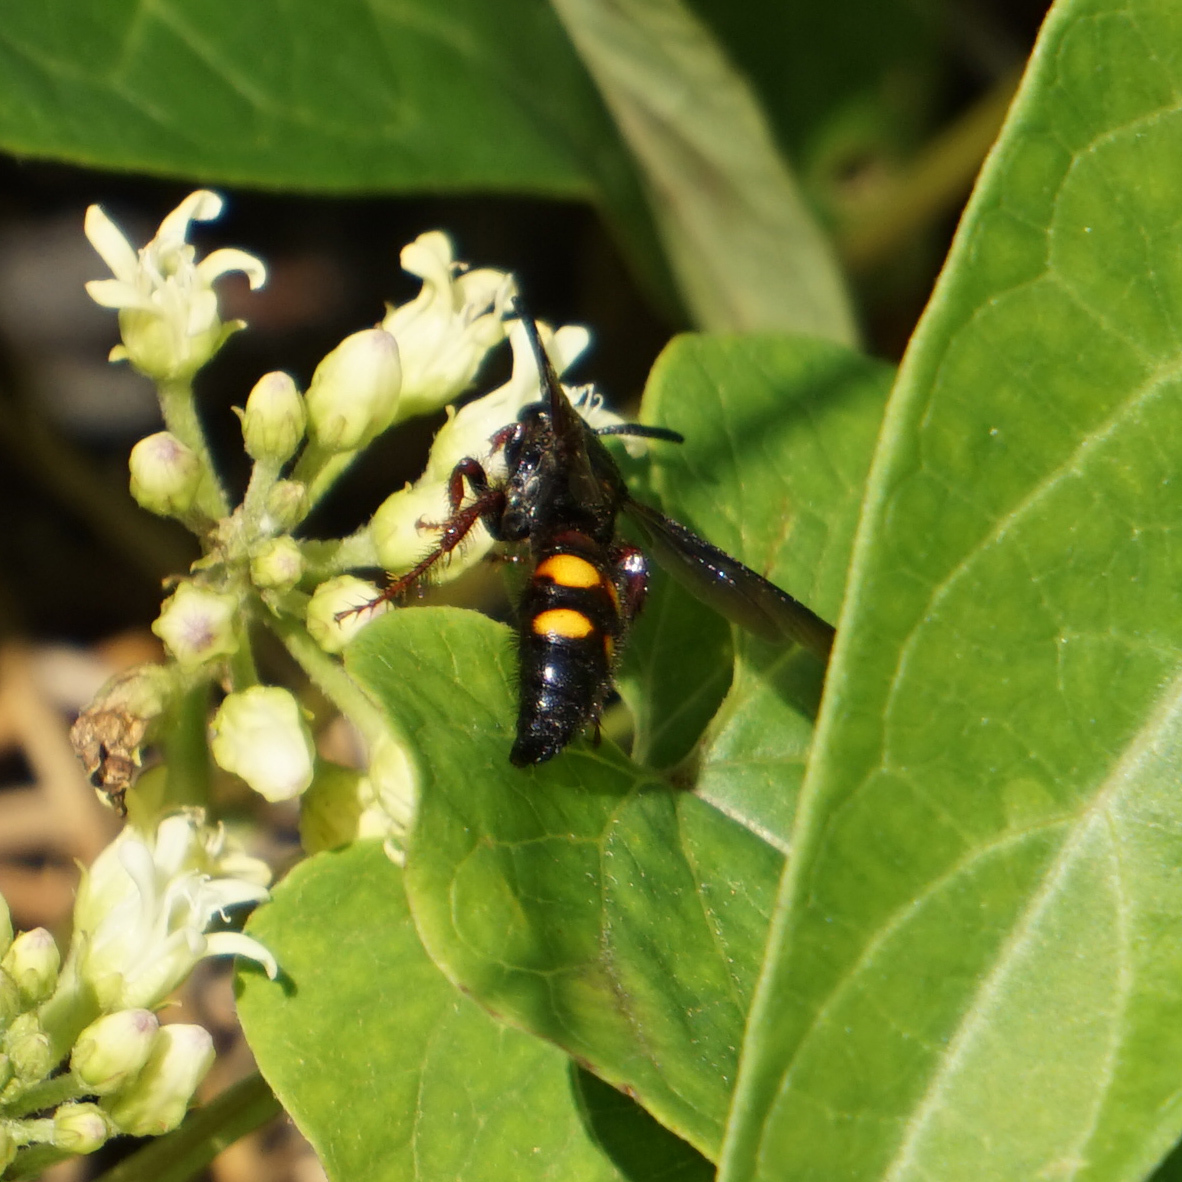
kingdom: Animalia
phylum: Arthropoda
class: Insecta
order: Hymenoptera
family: Scoliidae
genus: Scolia
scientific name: Scolia nobilitata
